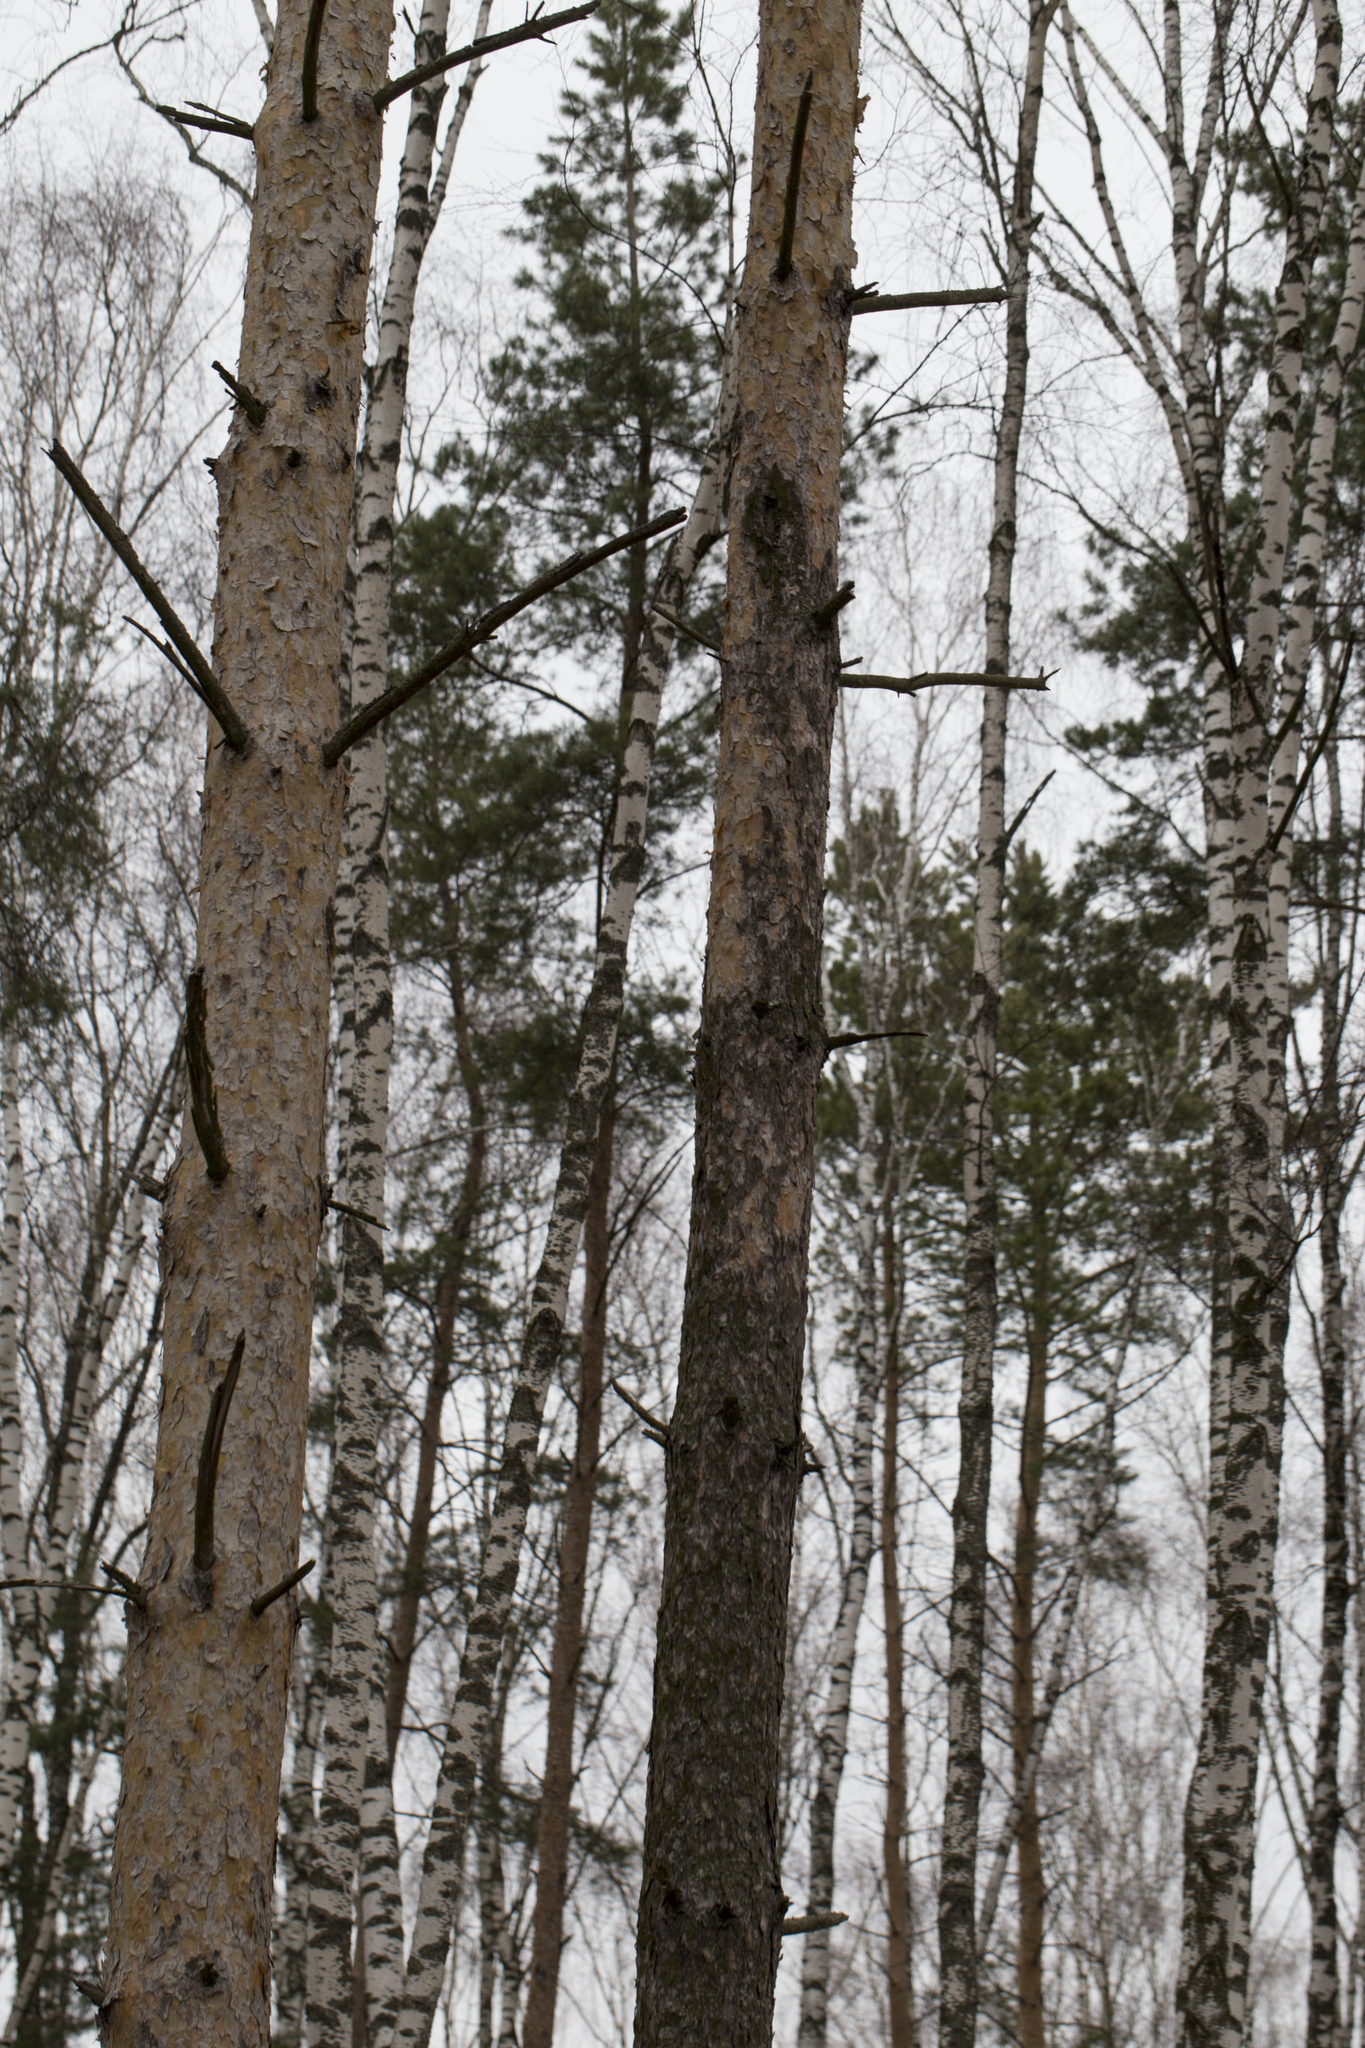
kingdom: Plantae
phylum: Tracheophyta
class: Pinopsida
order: Pinales
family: Pinaceae
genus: Pinus
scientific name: Pinus sylvestris
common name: Scots pine
